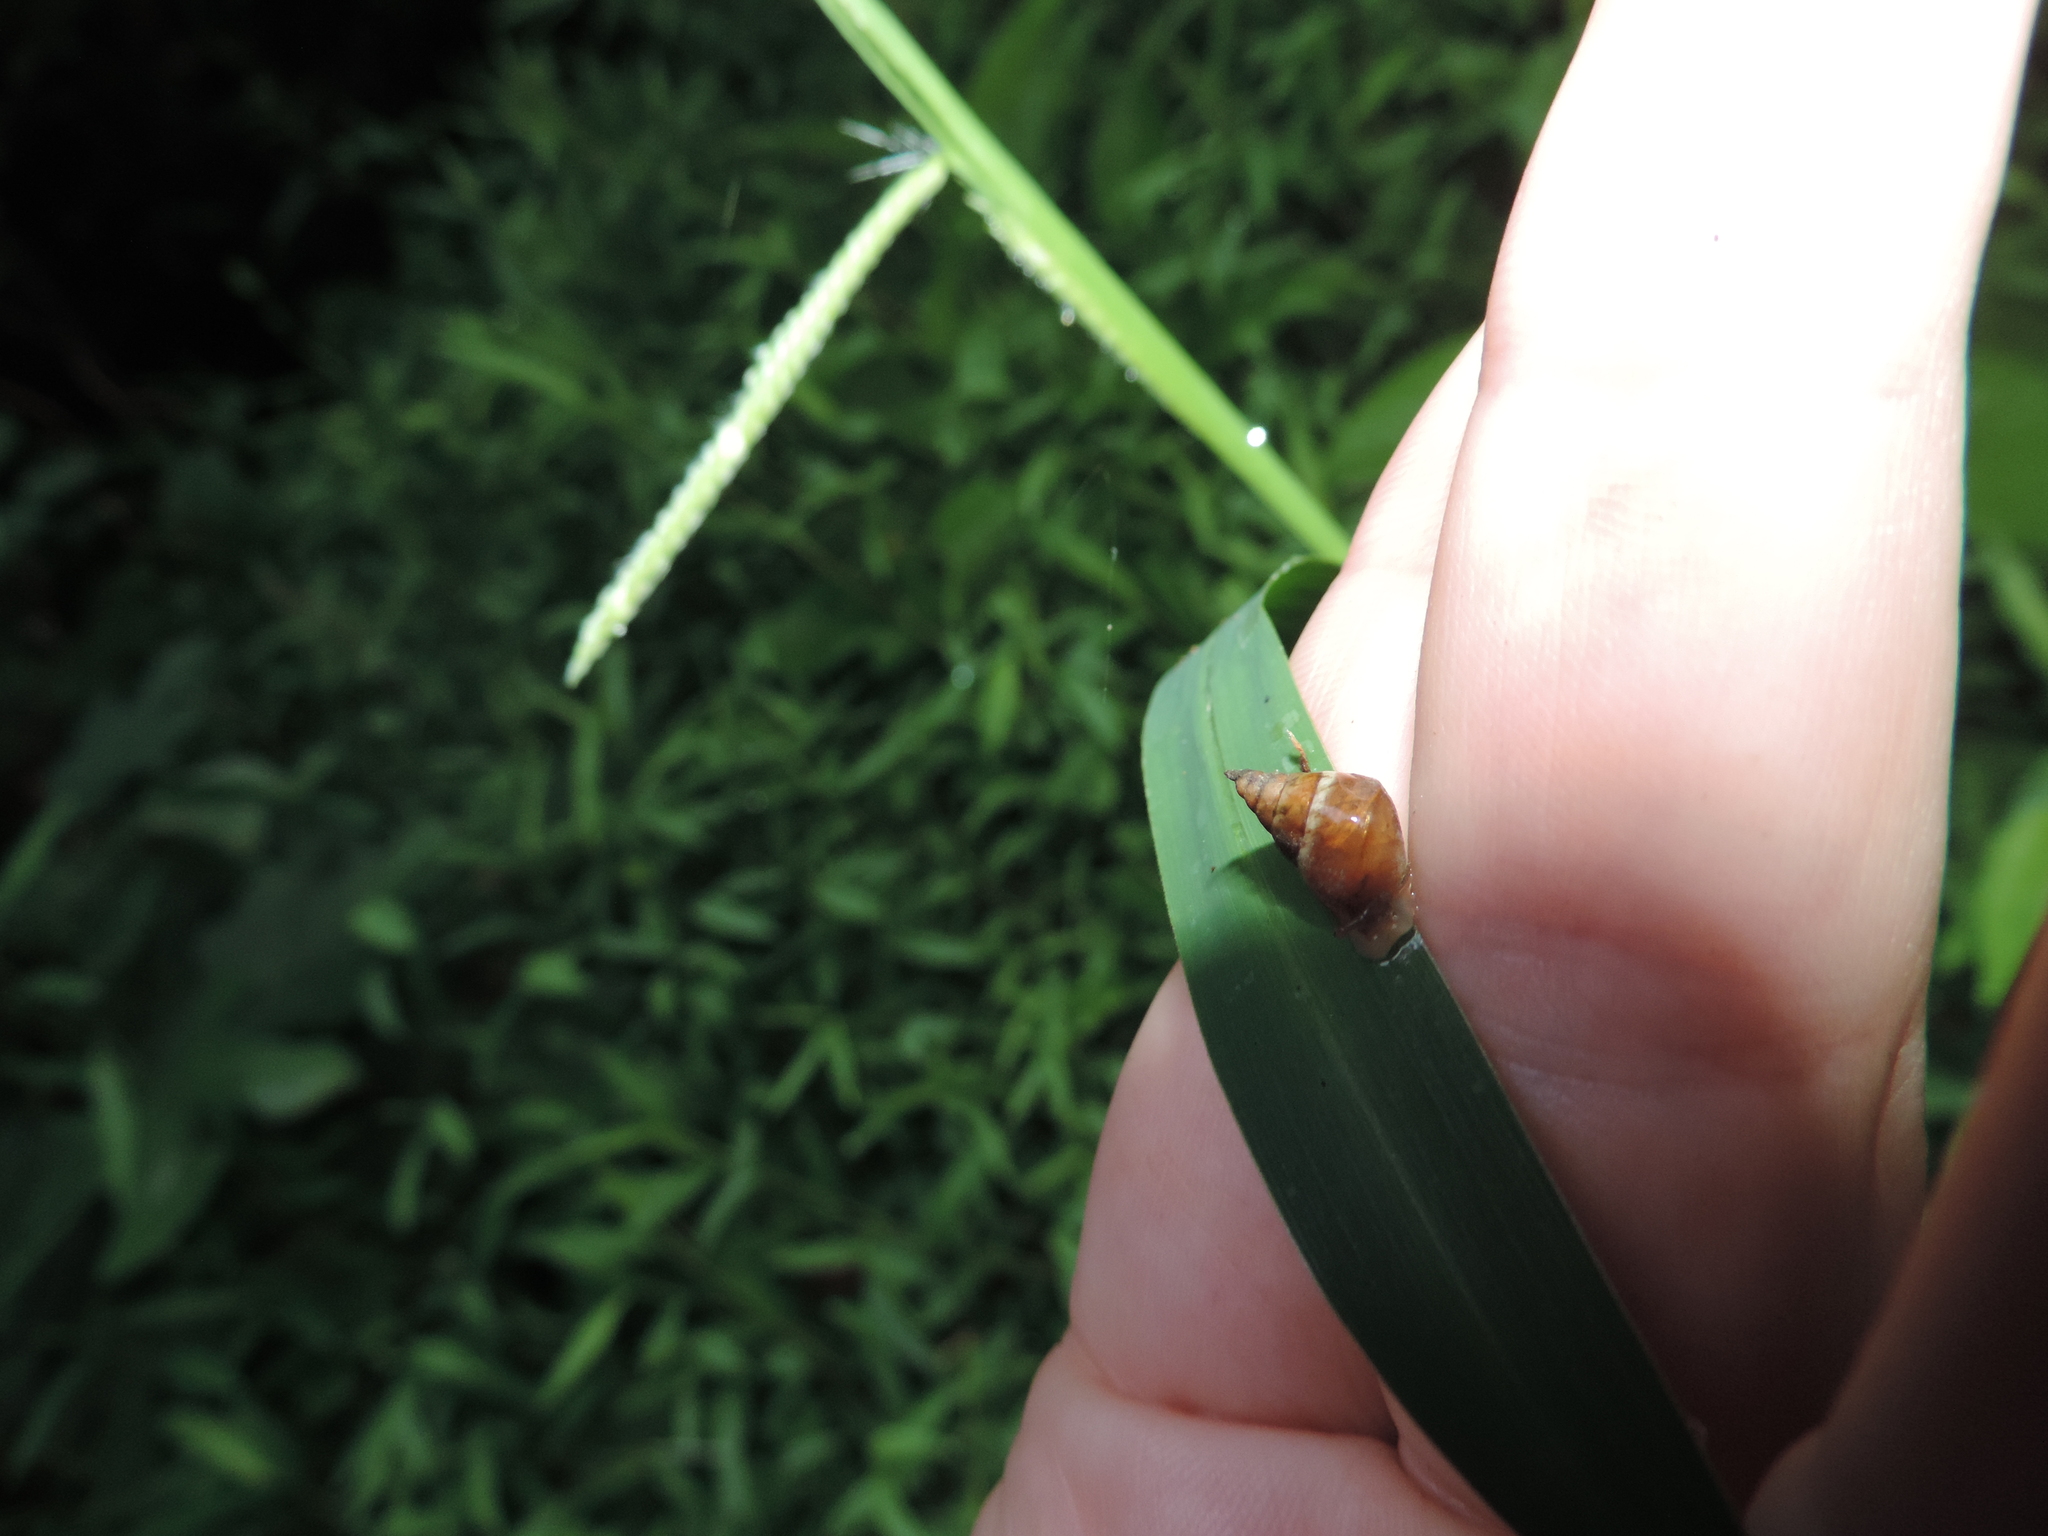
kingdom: Animalia
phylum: Mollusca
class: Gastropoda
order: Stylommatophora
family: Enidae
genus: Caucasicola
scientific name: Caucasicola raddei
